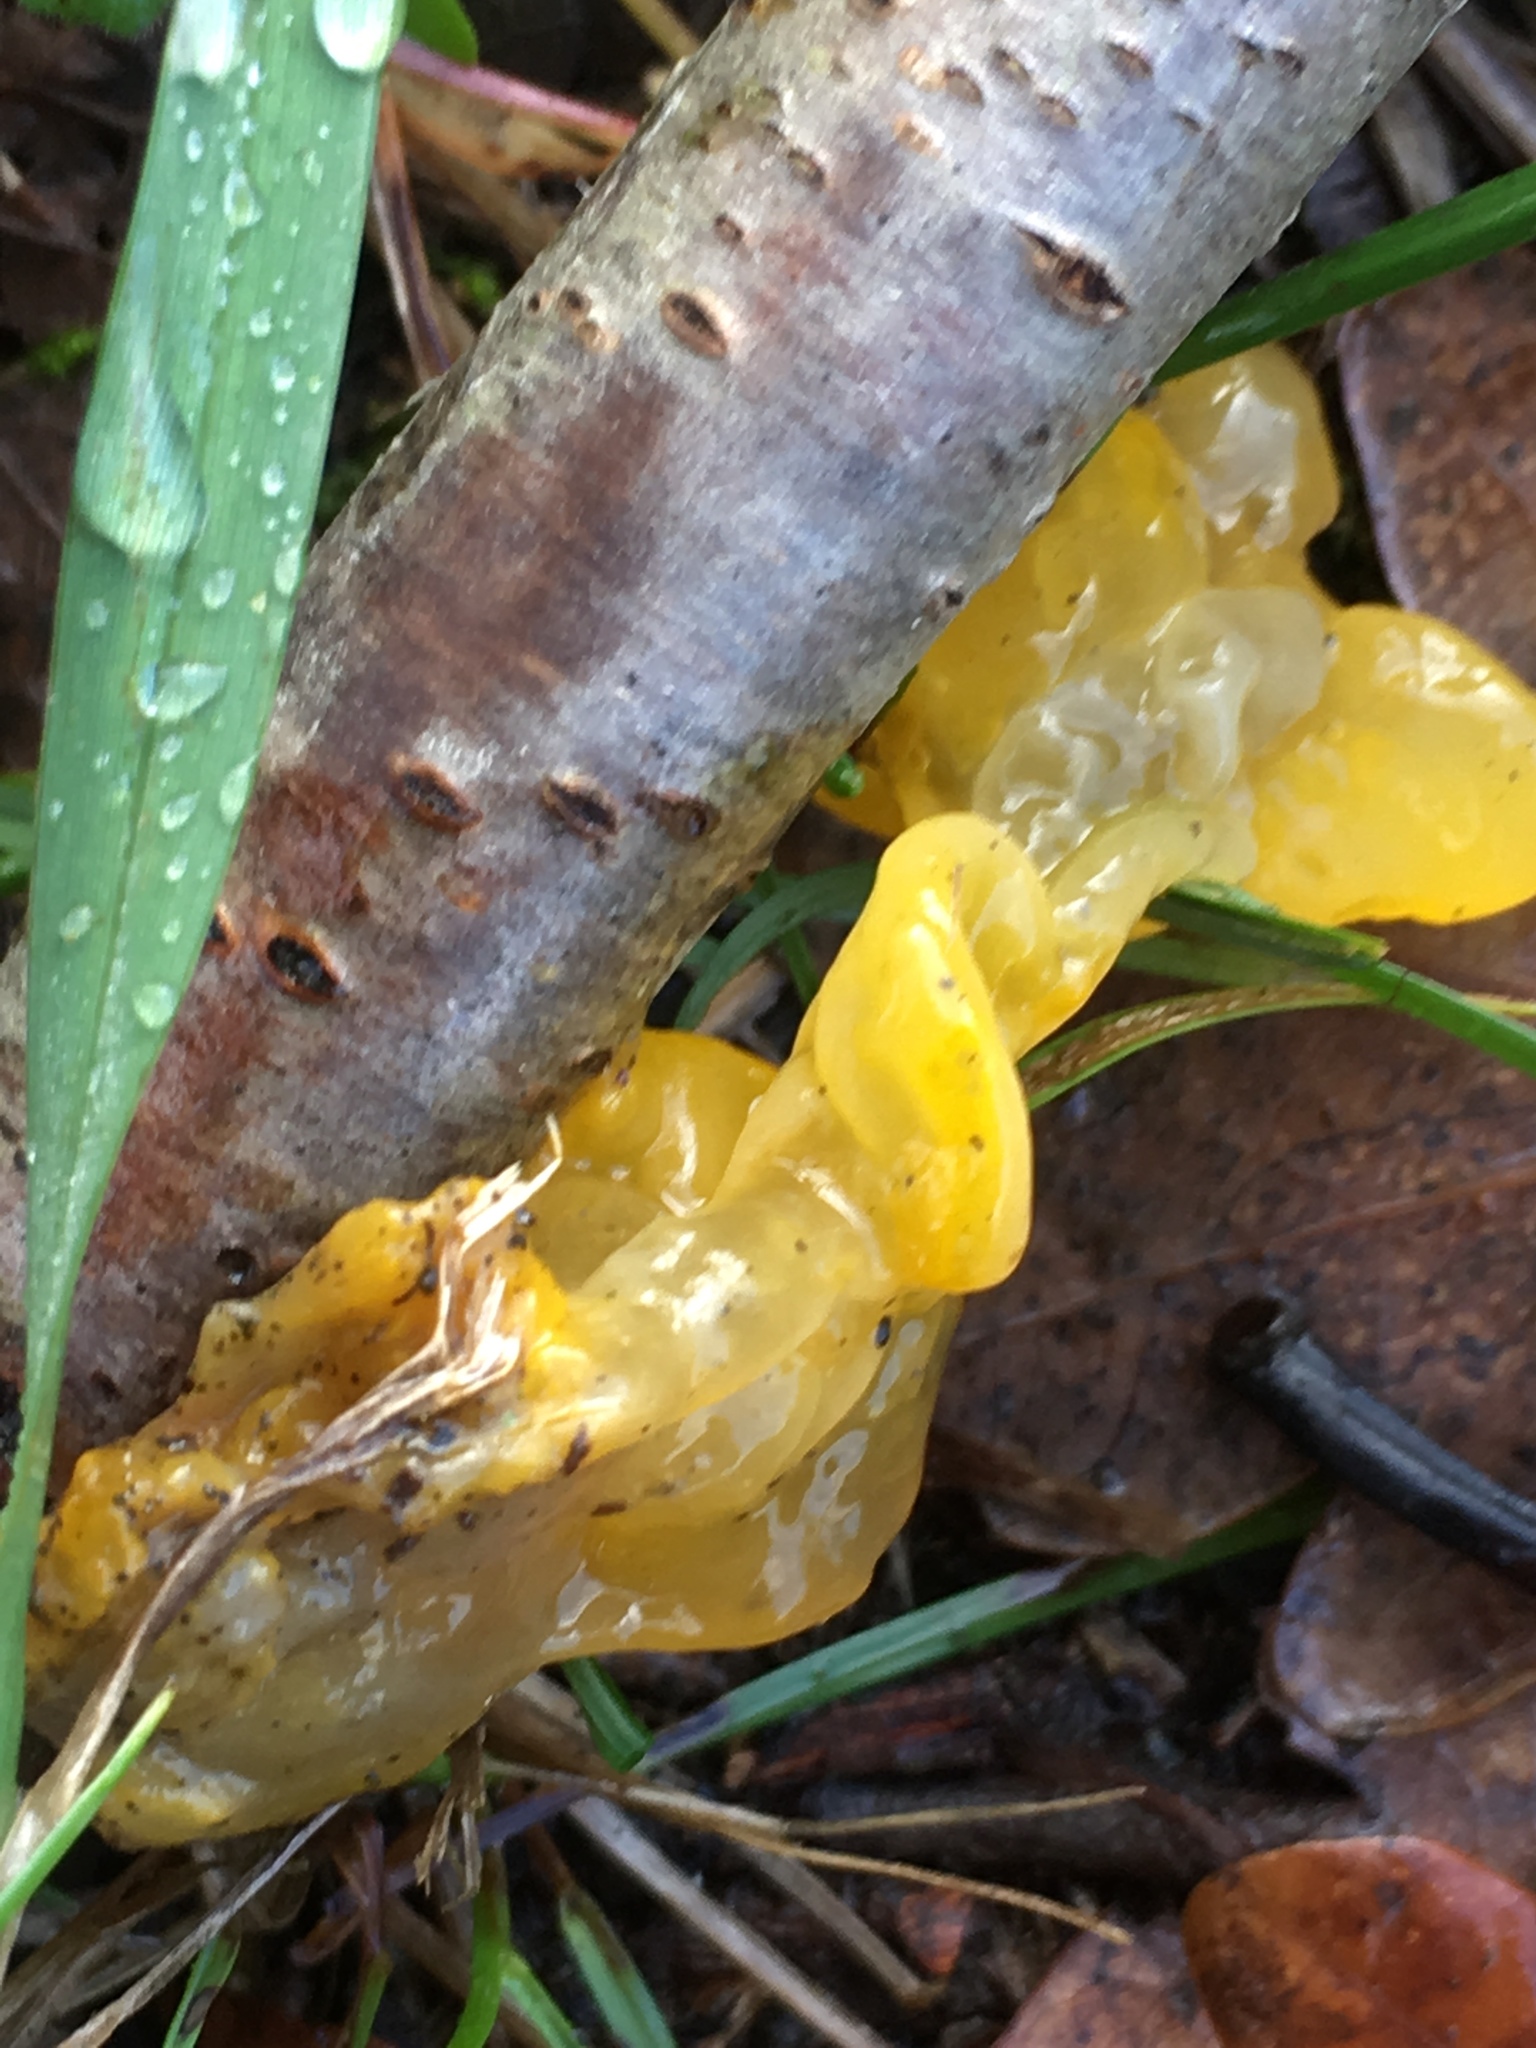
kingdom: Fungi
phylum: Basidiomycota
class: Tremellomycetes
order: Tremellales
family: Tremellaceae
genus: Tremella
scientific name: Tremella mesenterica
